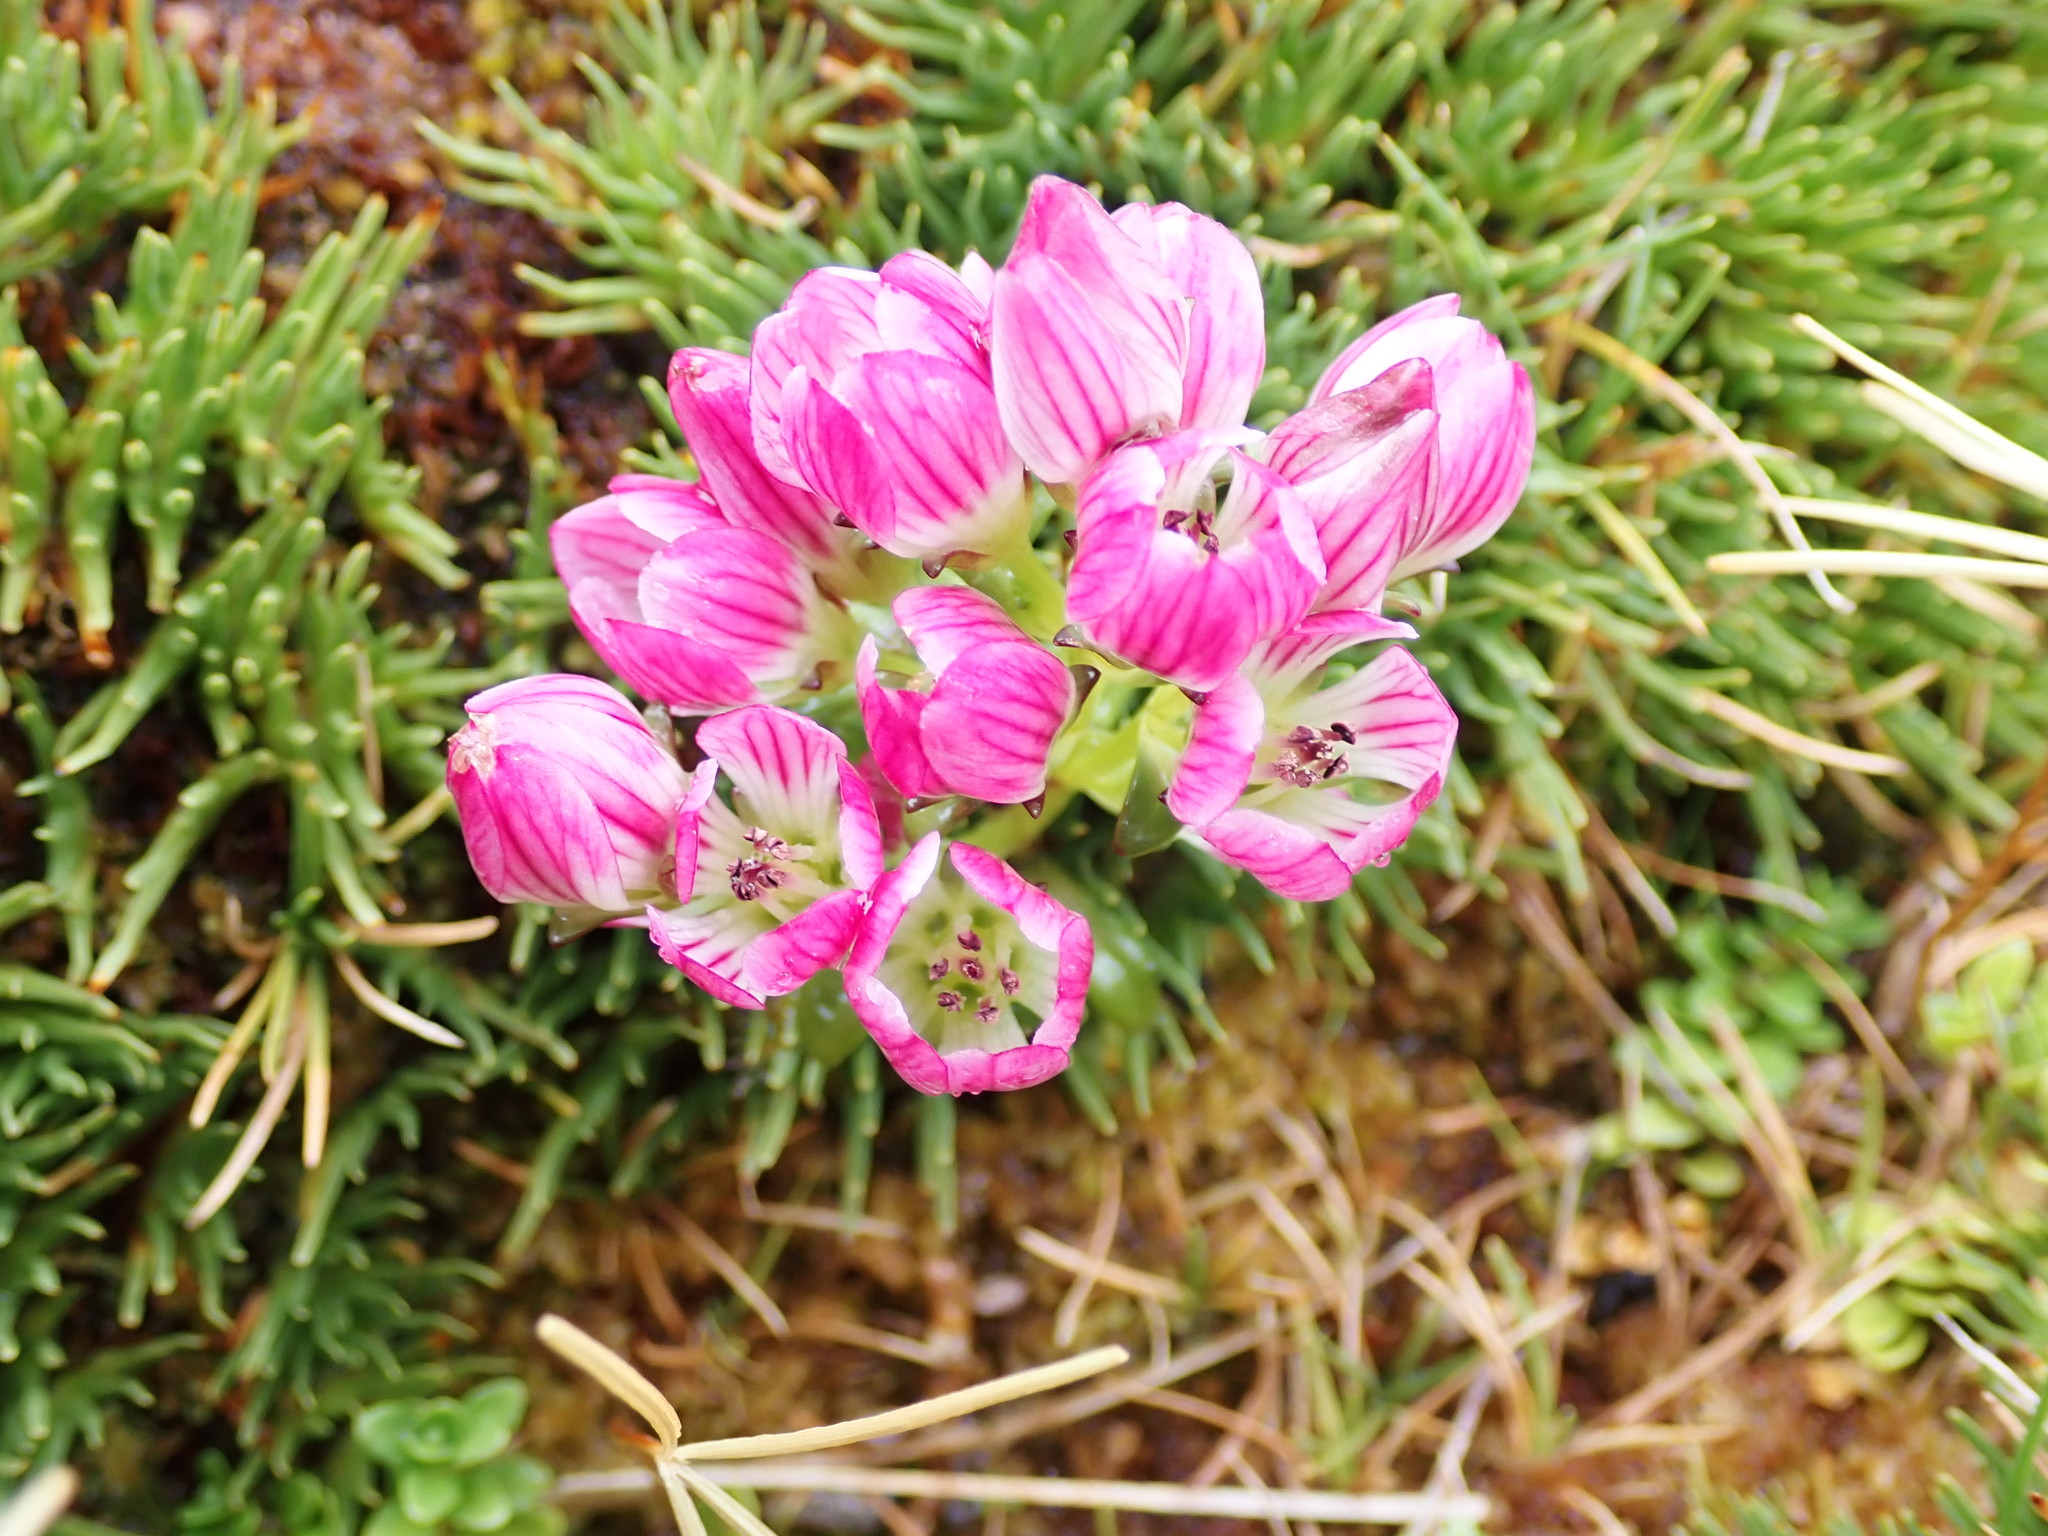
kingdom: Plantae
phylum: Tracheophyta
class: Magnoliopsida
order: Gentianales
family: Gentianaceae
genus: Gentianella
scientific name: Gentianella concinna
